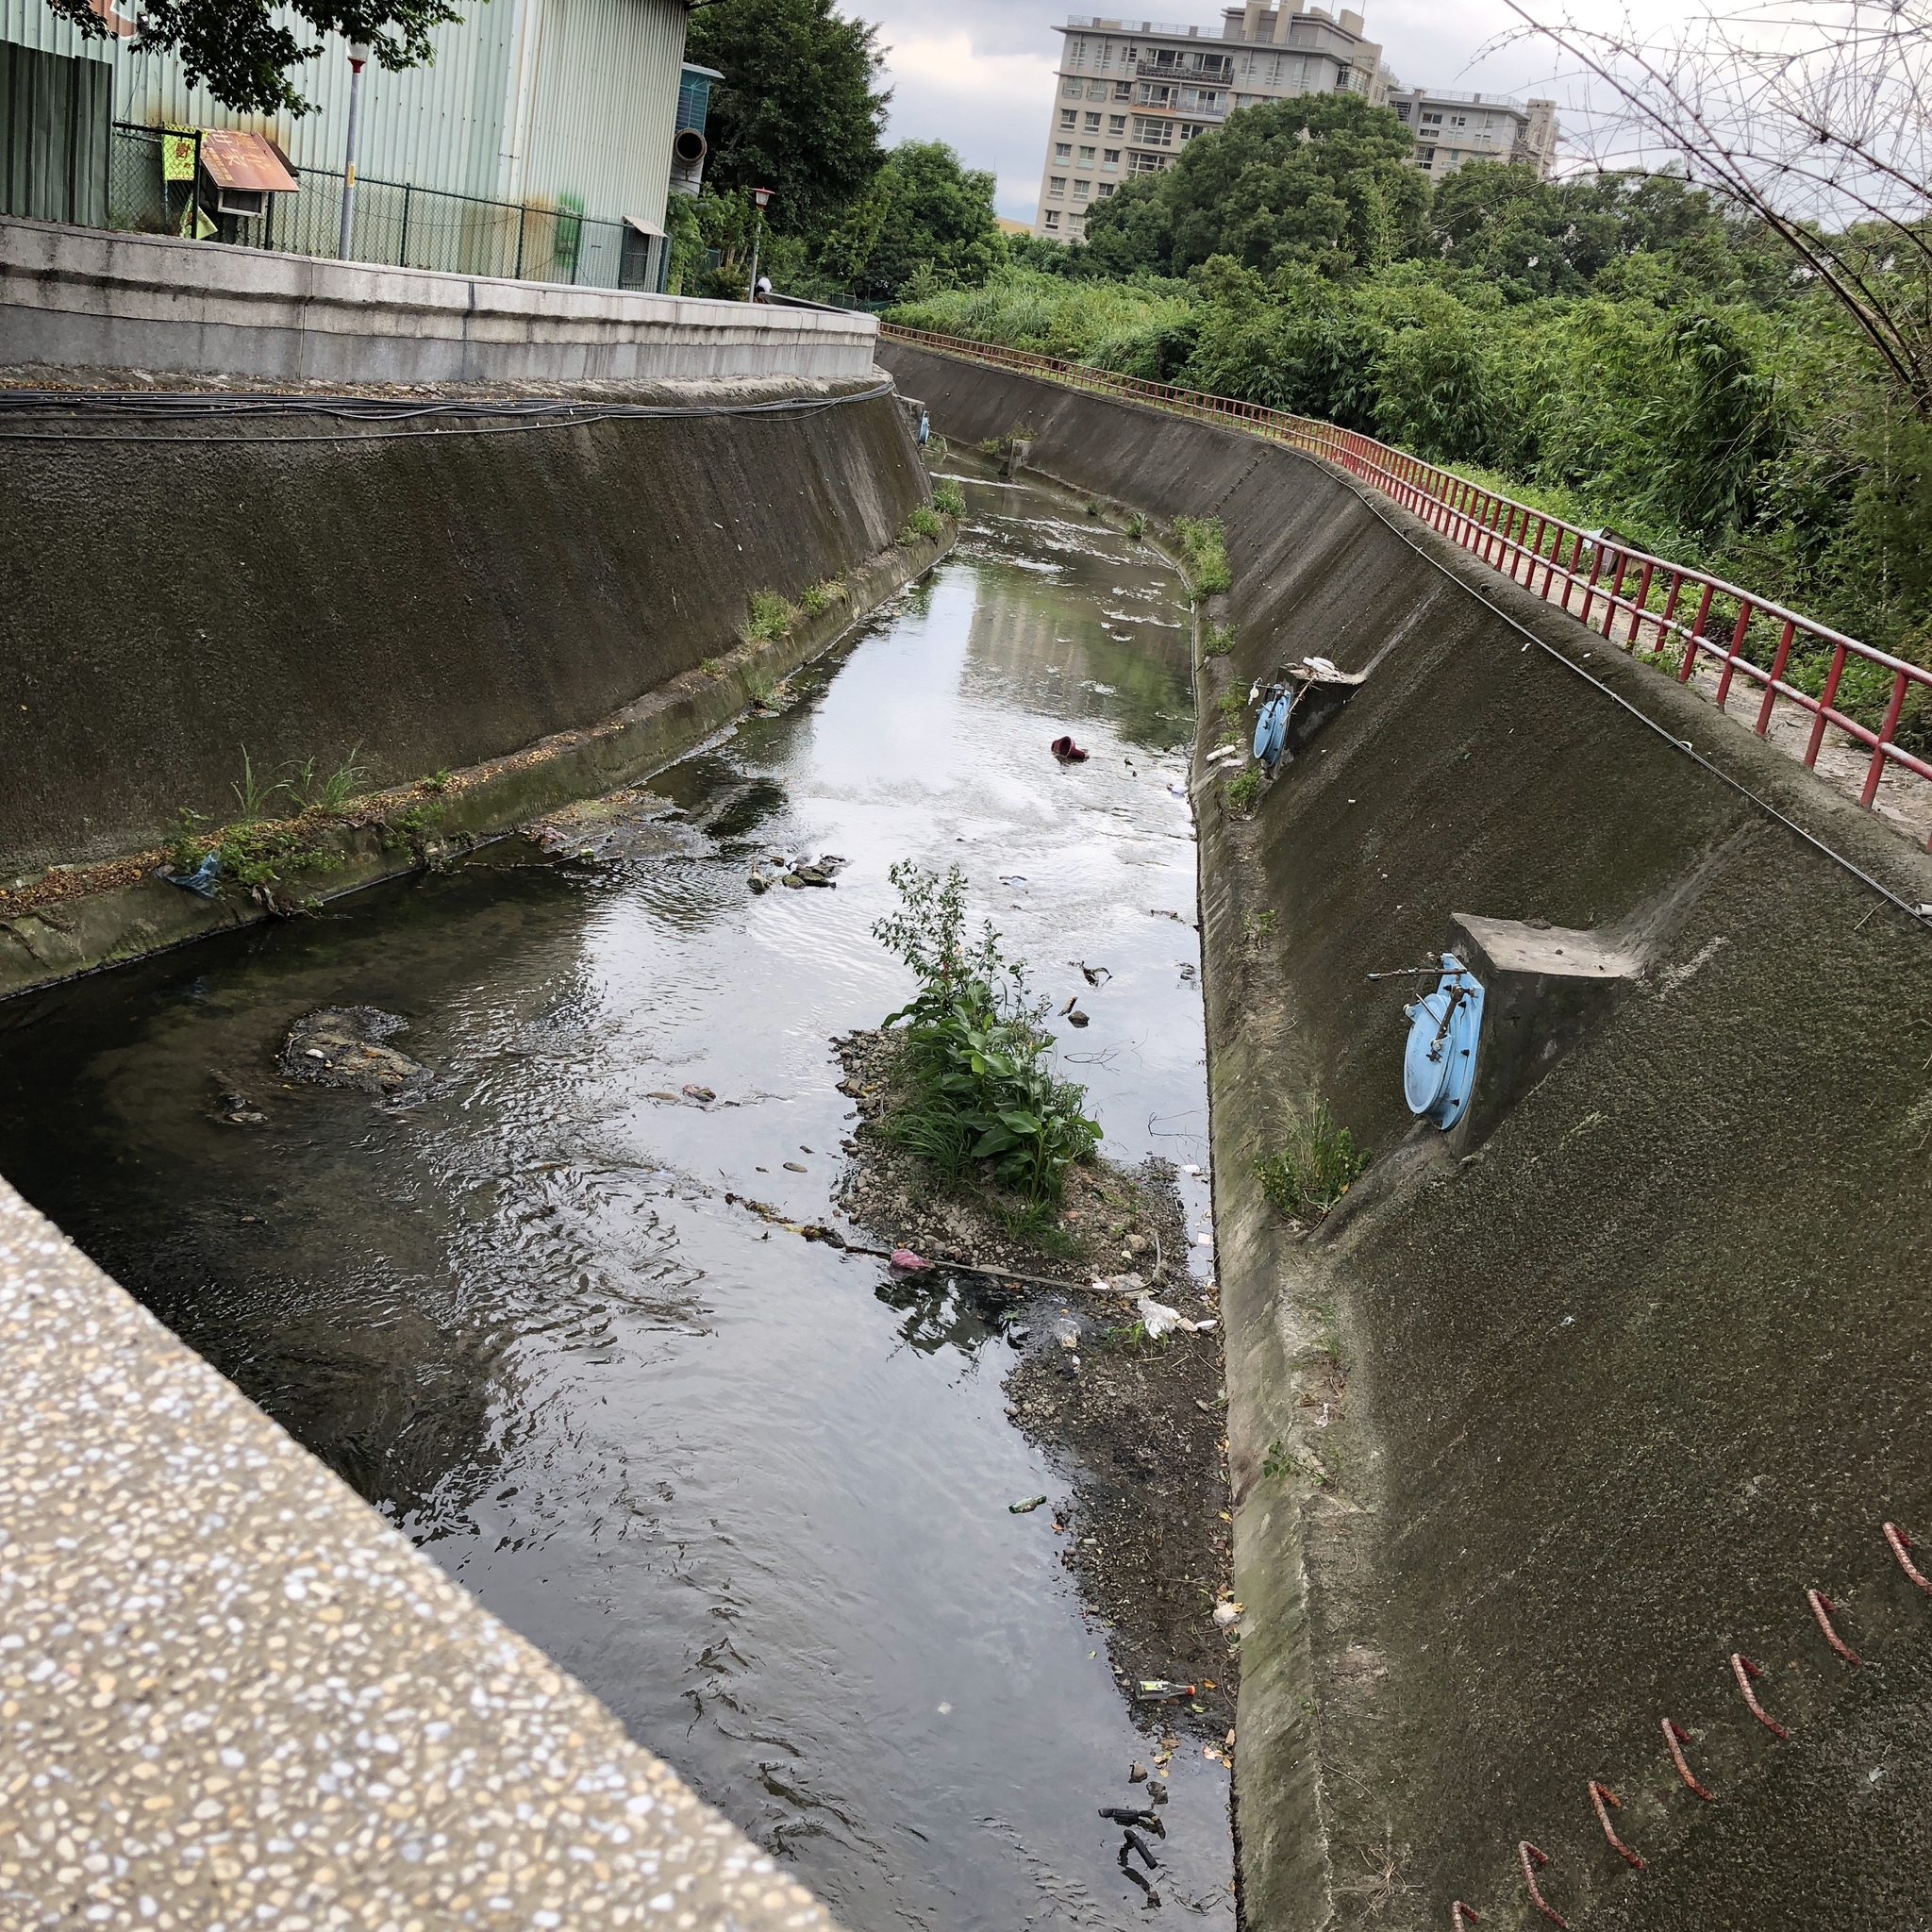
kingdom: Animalia
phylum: Chordata
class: Aves
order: Passeriformes
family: Passeridae
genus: Passer
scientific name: Passer montanus
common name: Eurasian tree sparrow
